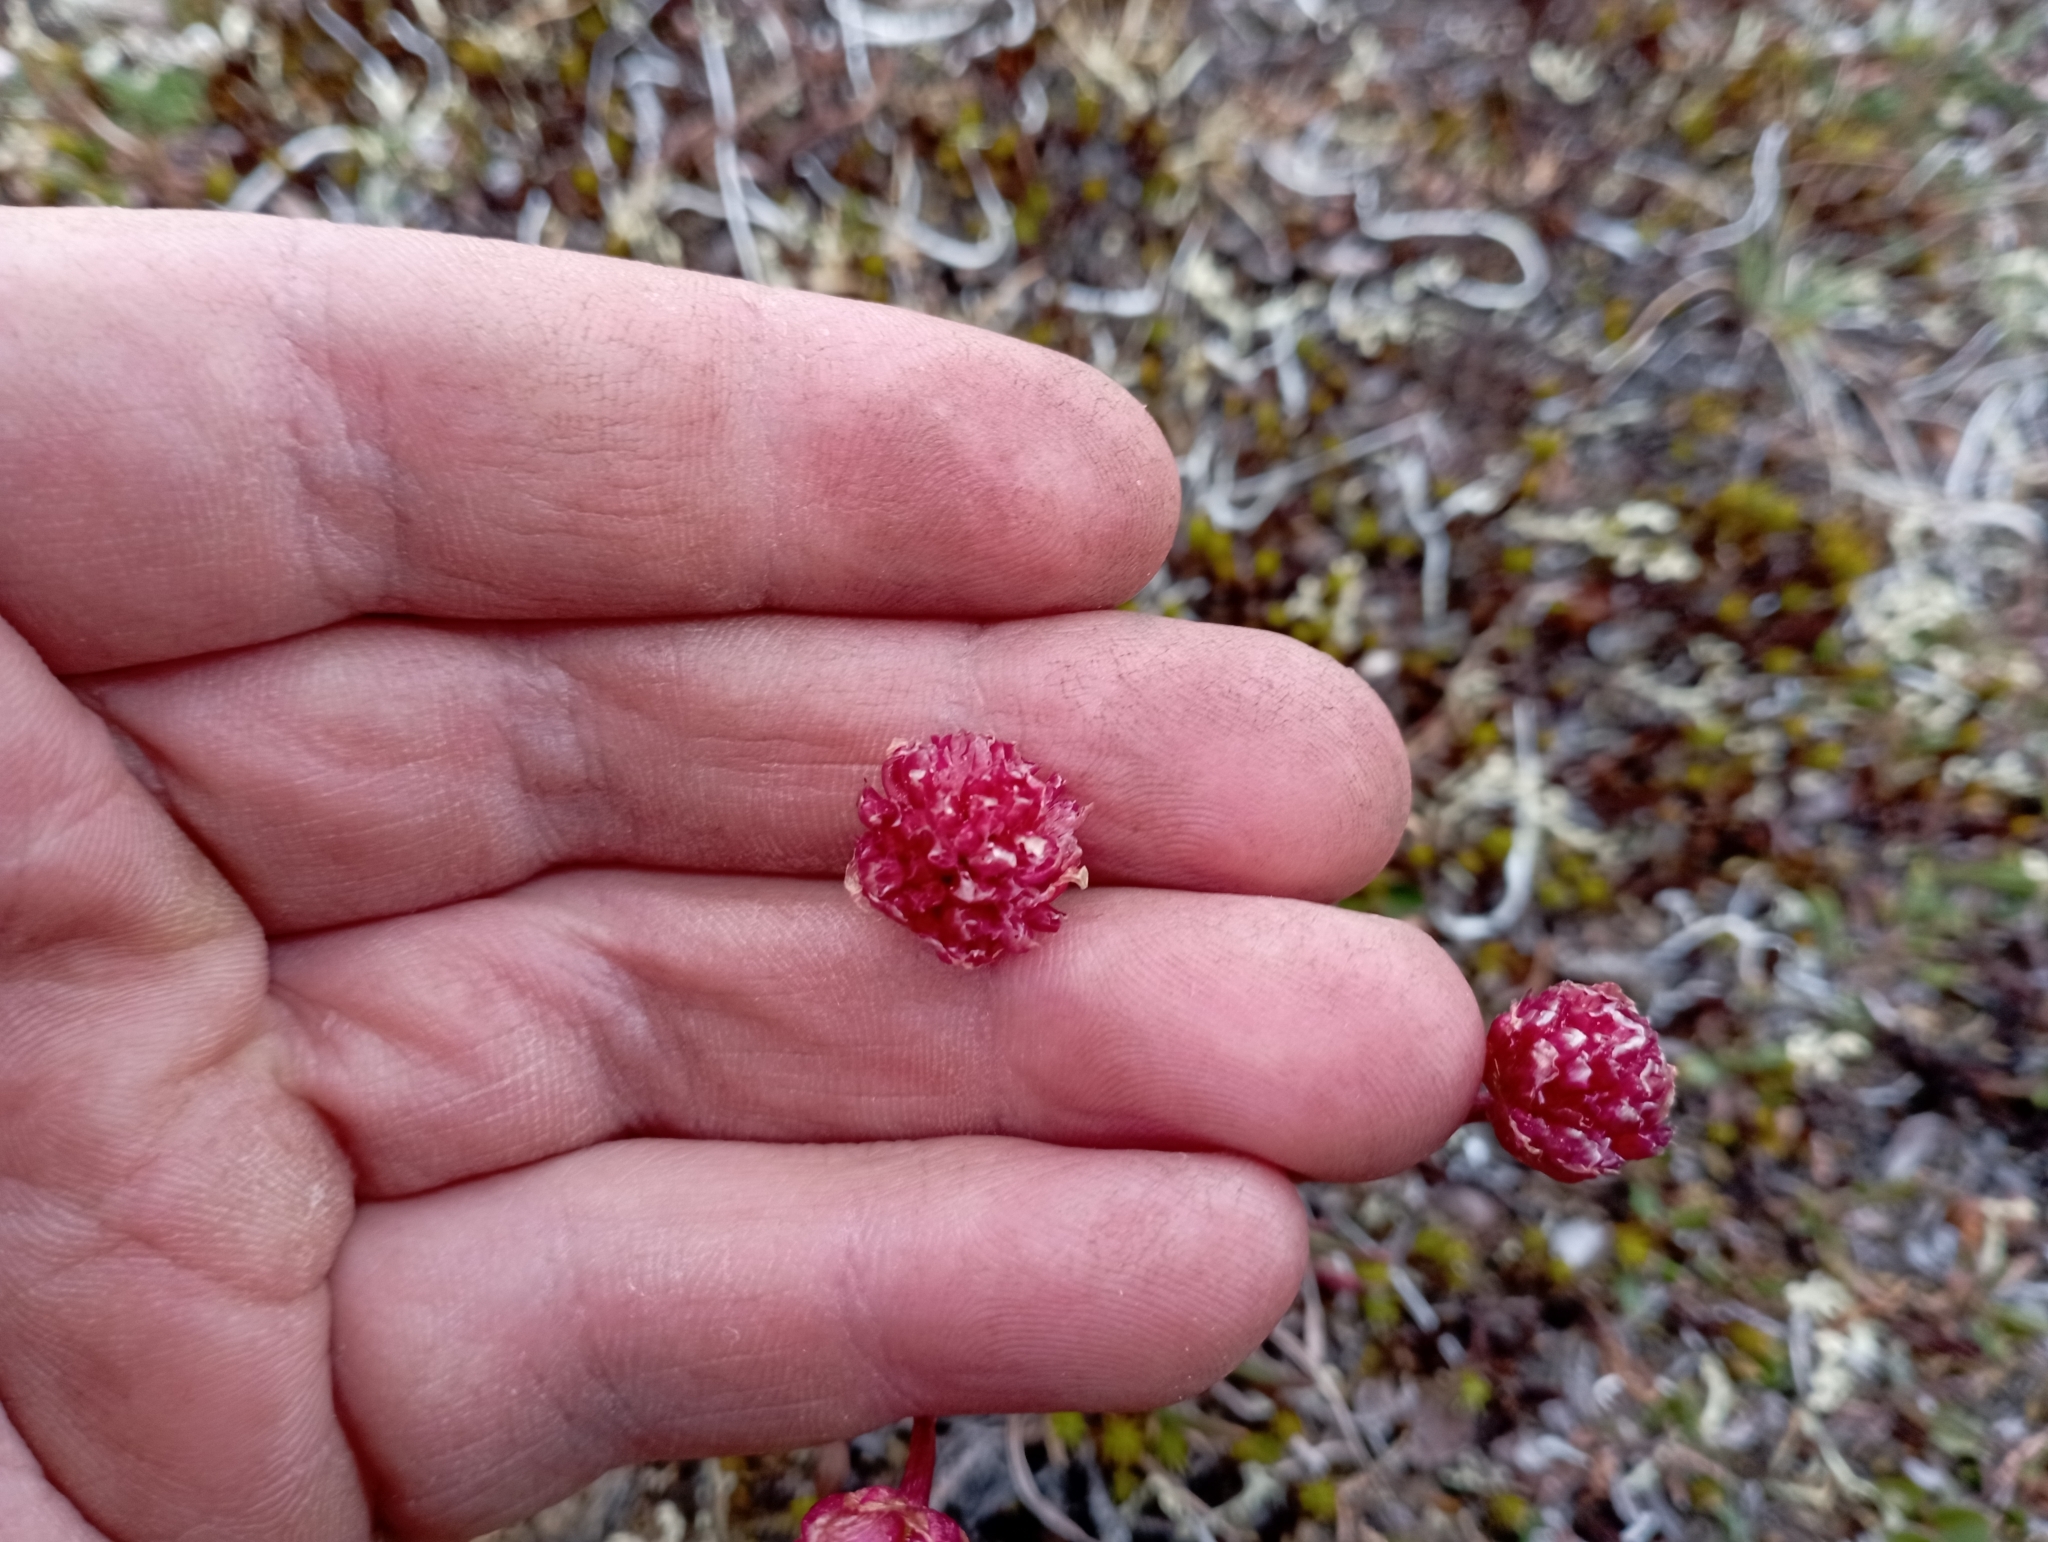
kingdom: Plantae
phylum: Tracheophyta
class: Magnoliopsida
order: Caryophyllales
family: Plumbaginaceae
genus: Armeria
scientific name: Armeria maritima
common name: Thrift
